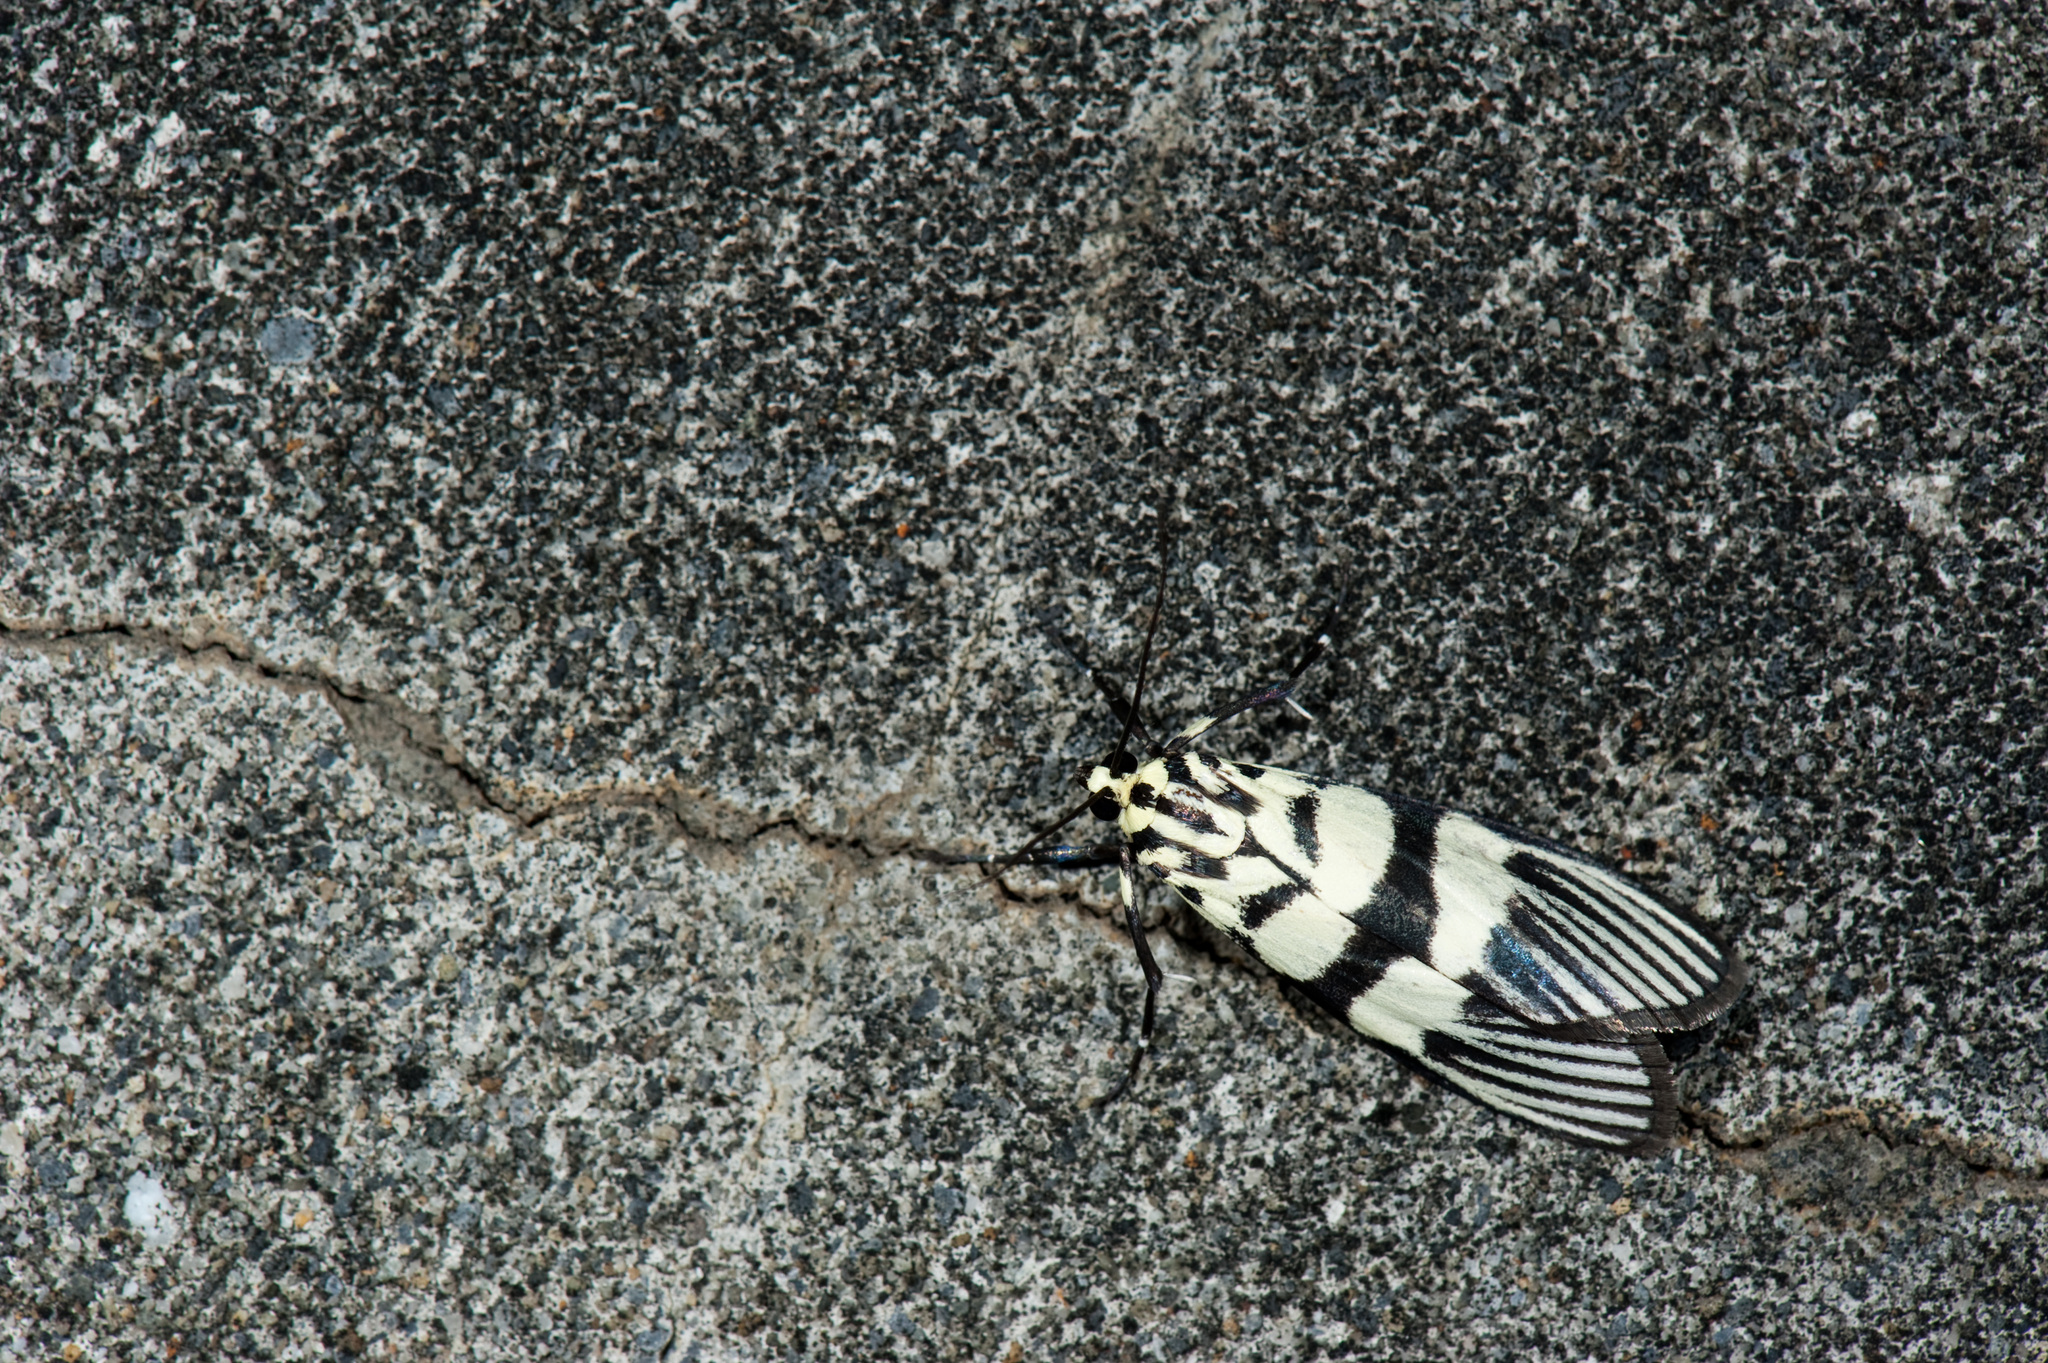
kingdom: Animalia
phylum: Arthropoda
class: Insecta
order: Lepidoptera
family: Crambidae
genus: Heortia
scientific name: Heortia vitessoides
